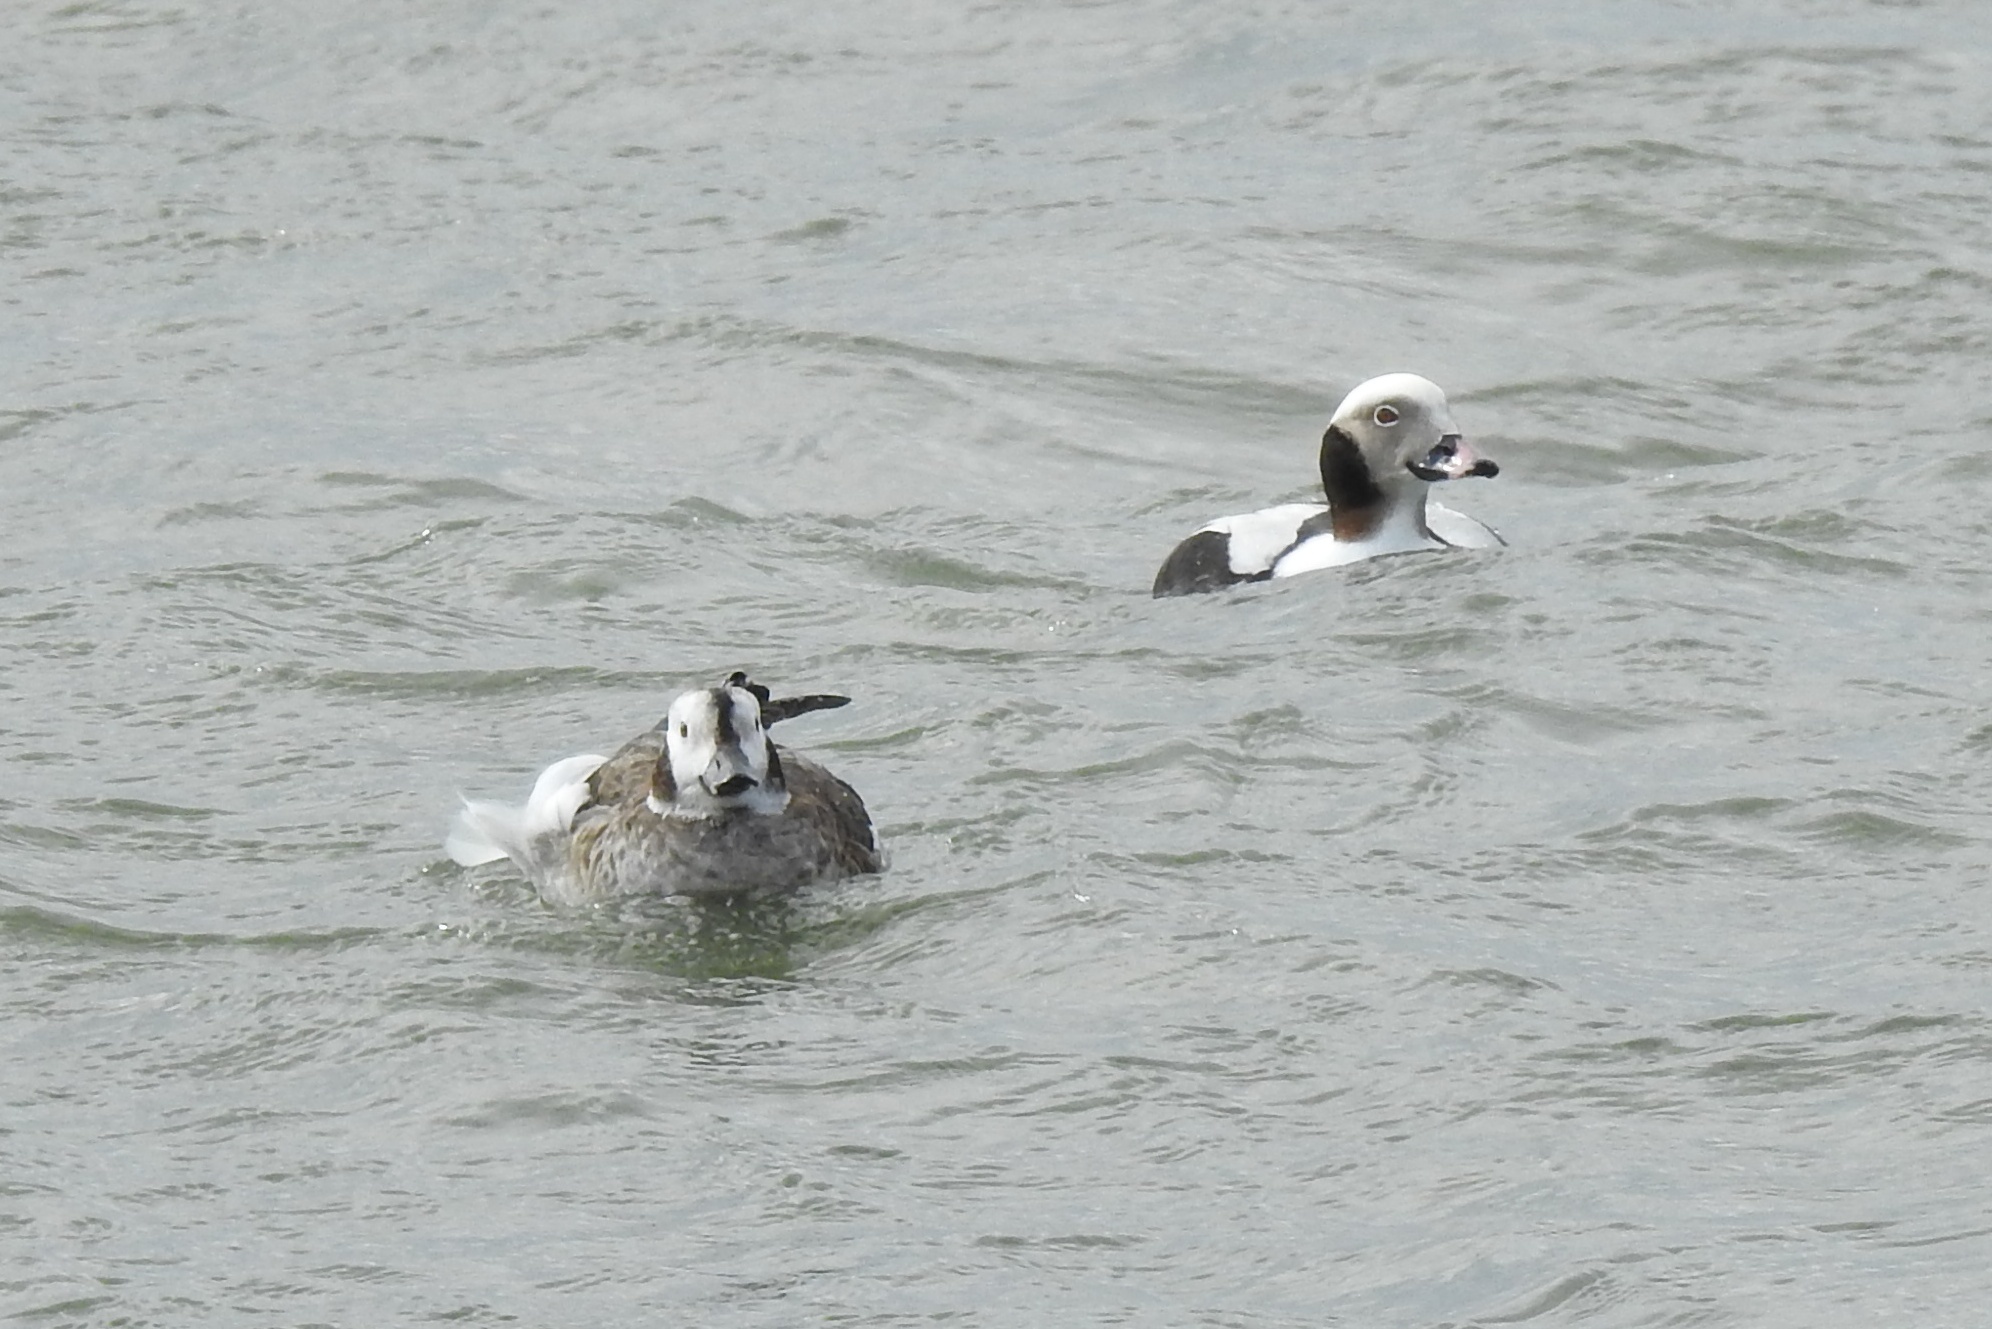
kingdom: Animalia
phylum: Chordata
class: Aves
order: Anseriformes
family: Anatidae
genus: Clangula
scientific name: Clangula hyemalis
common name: Long-tailed duck
